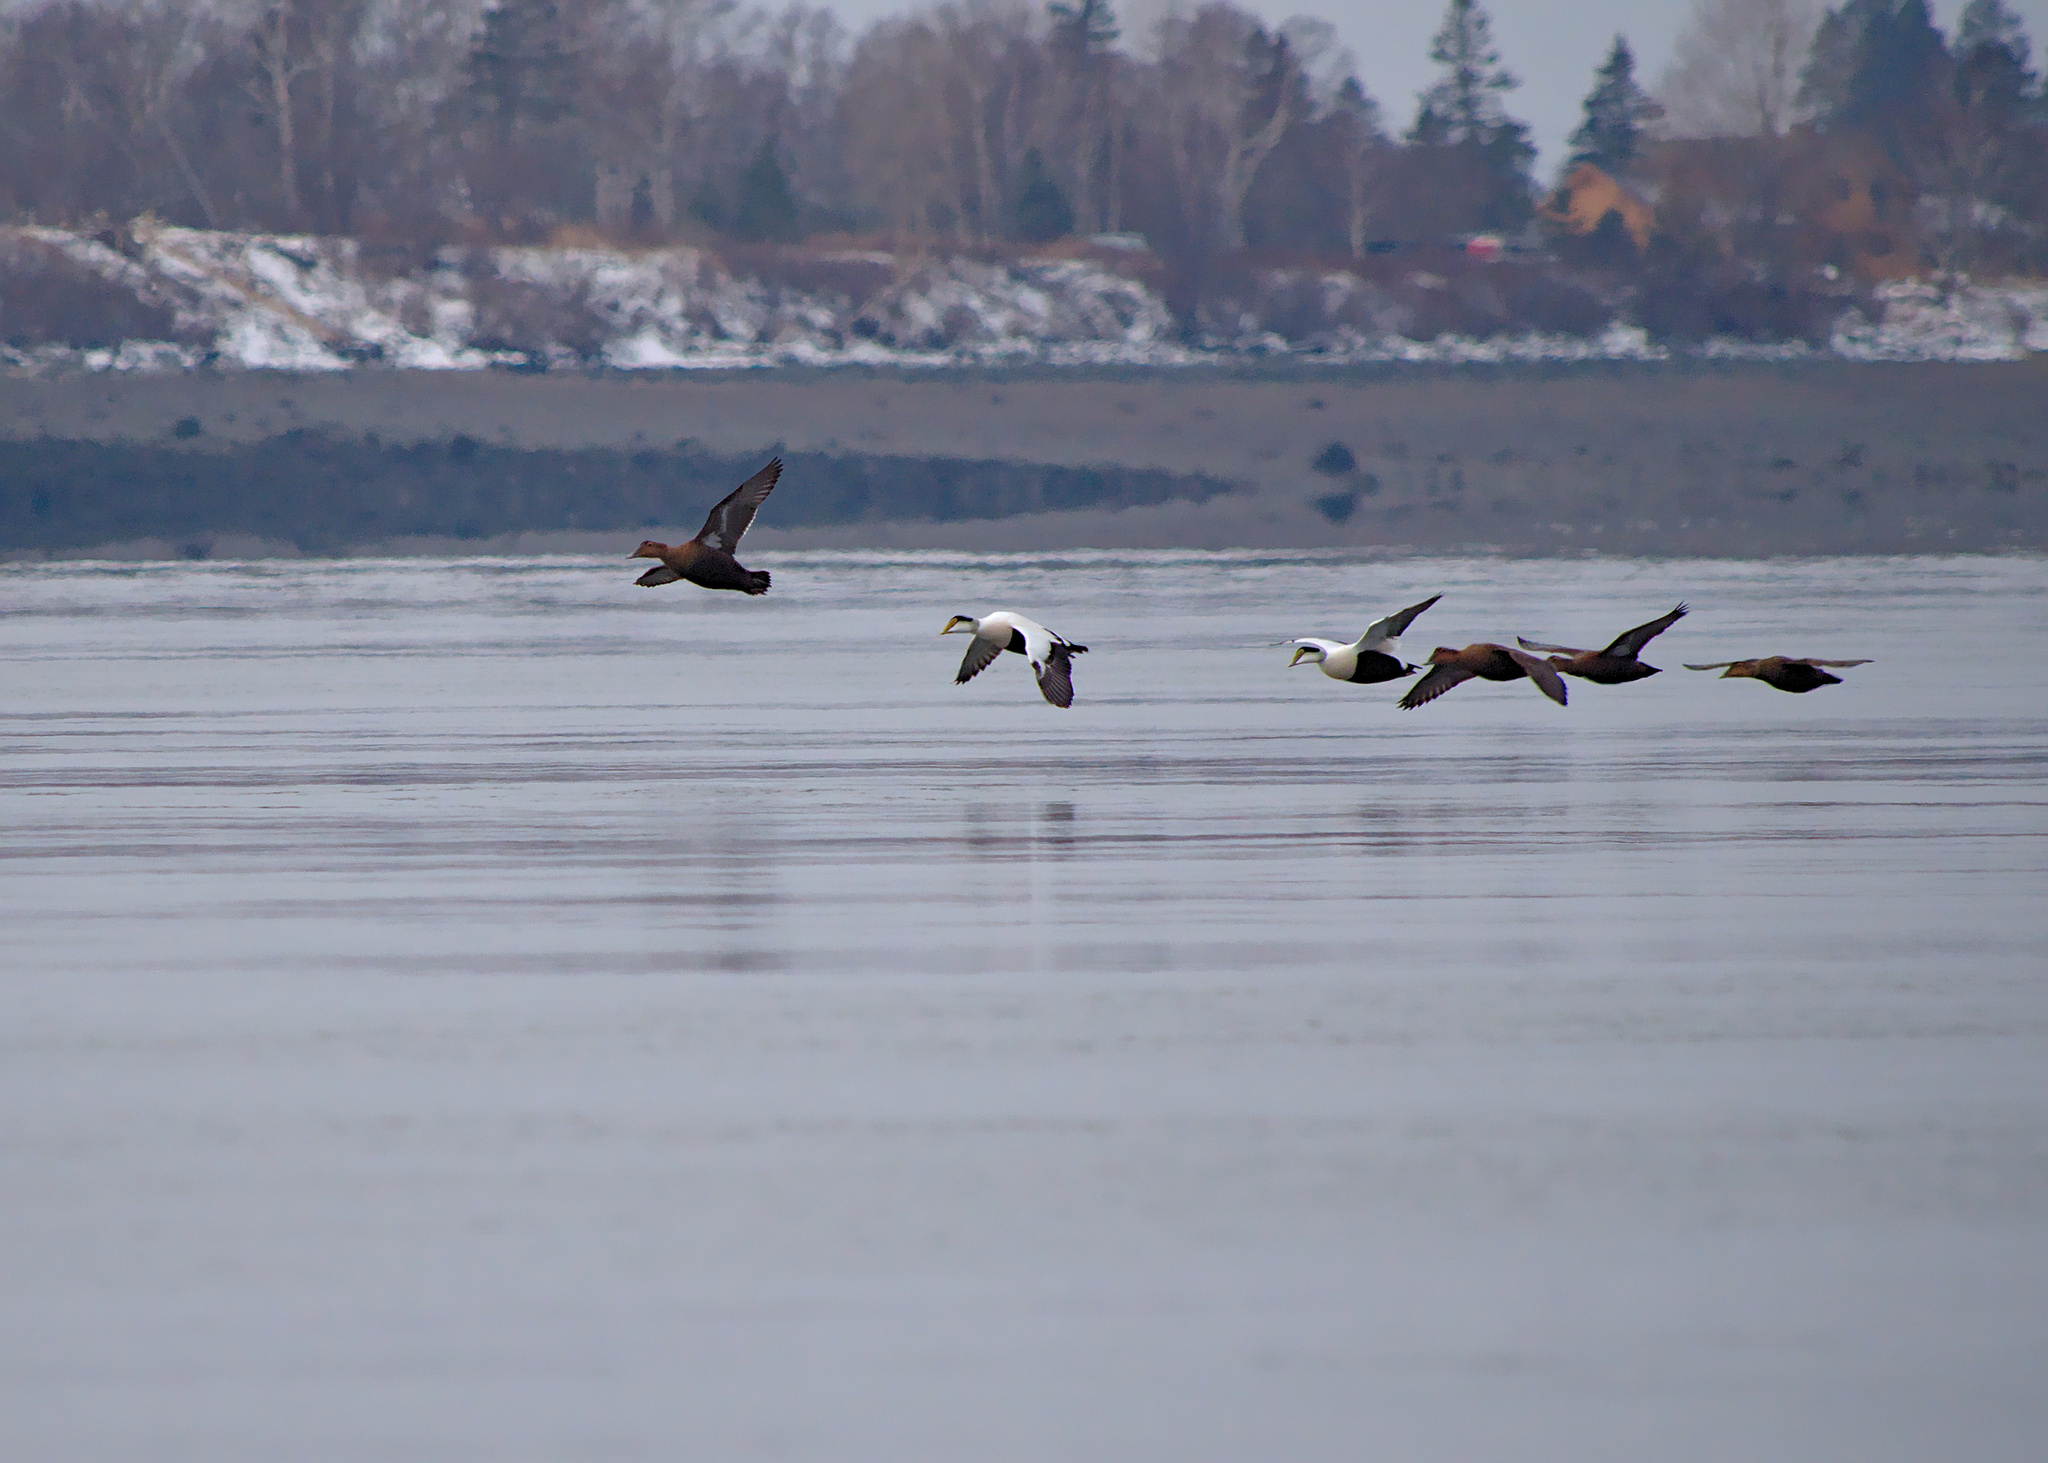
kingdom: Animalia
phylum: Chordata
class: Aves
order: Anseriformes
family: Anatidae
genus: Somateria
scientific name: Somateria mollissima
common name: Common eider
